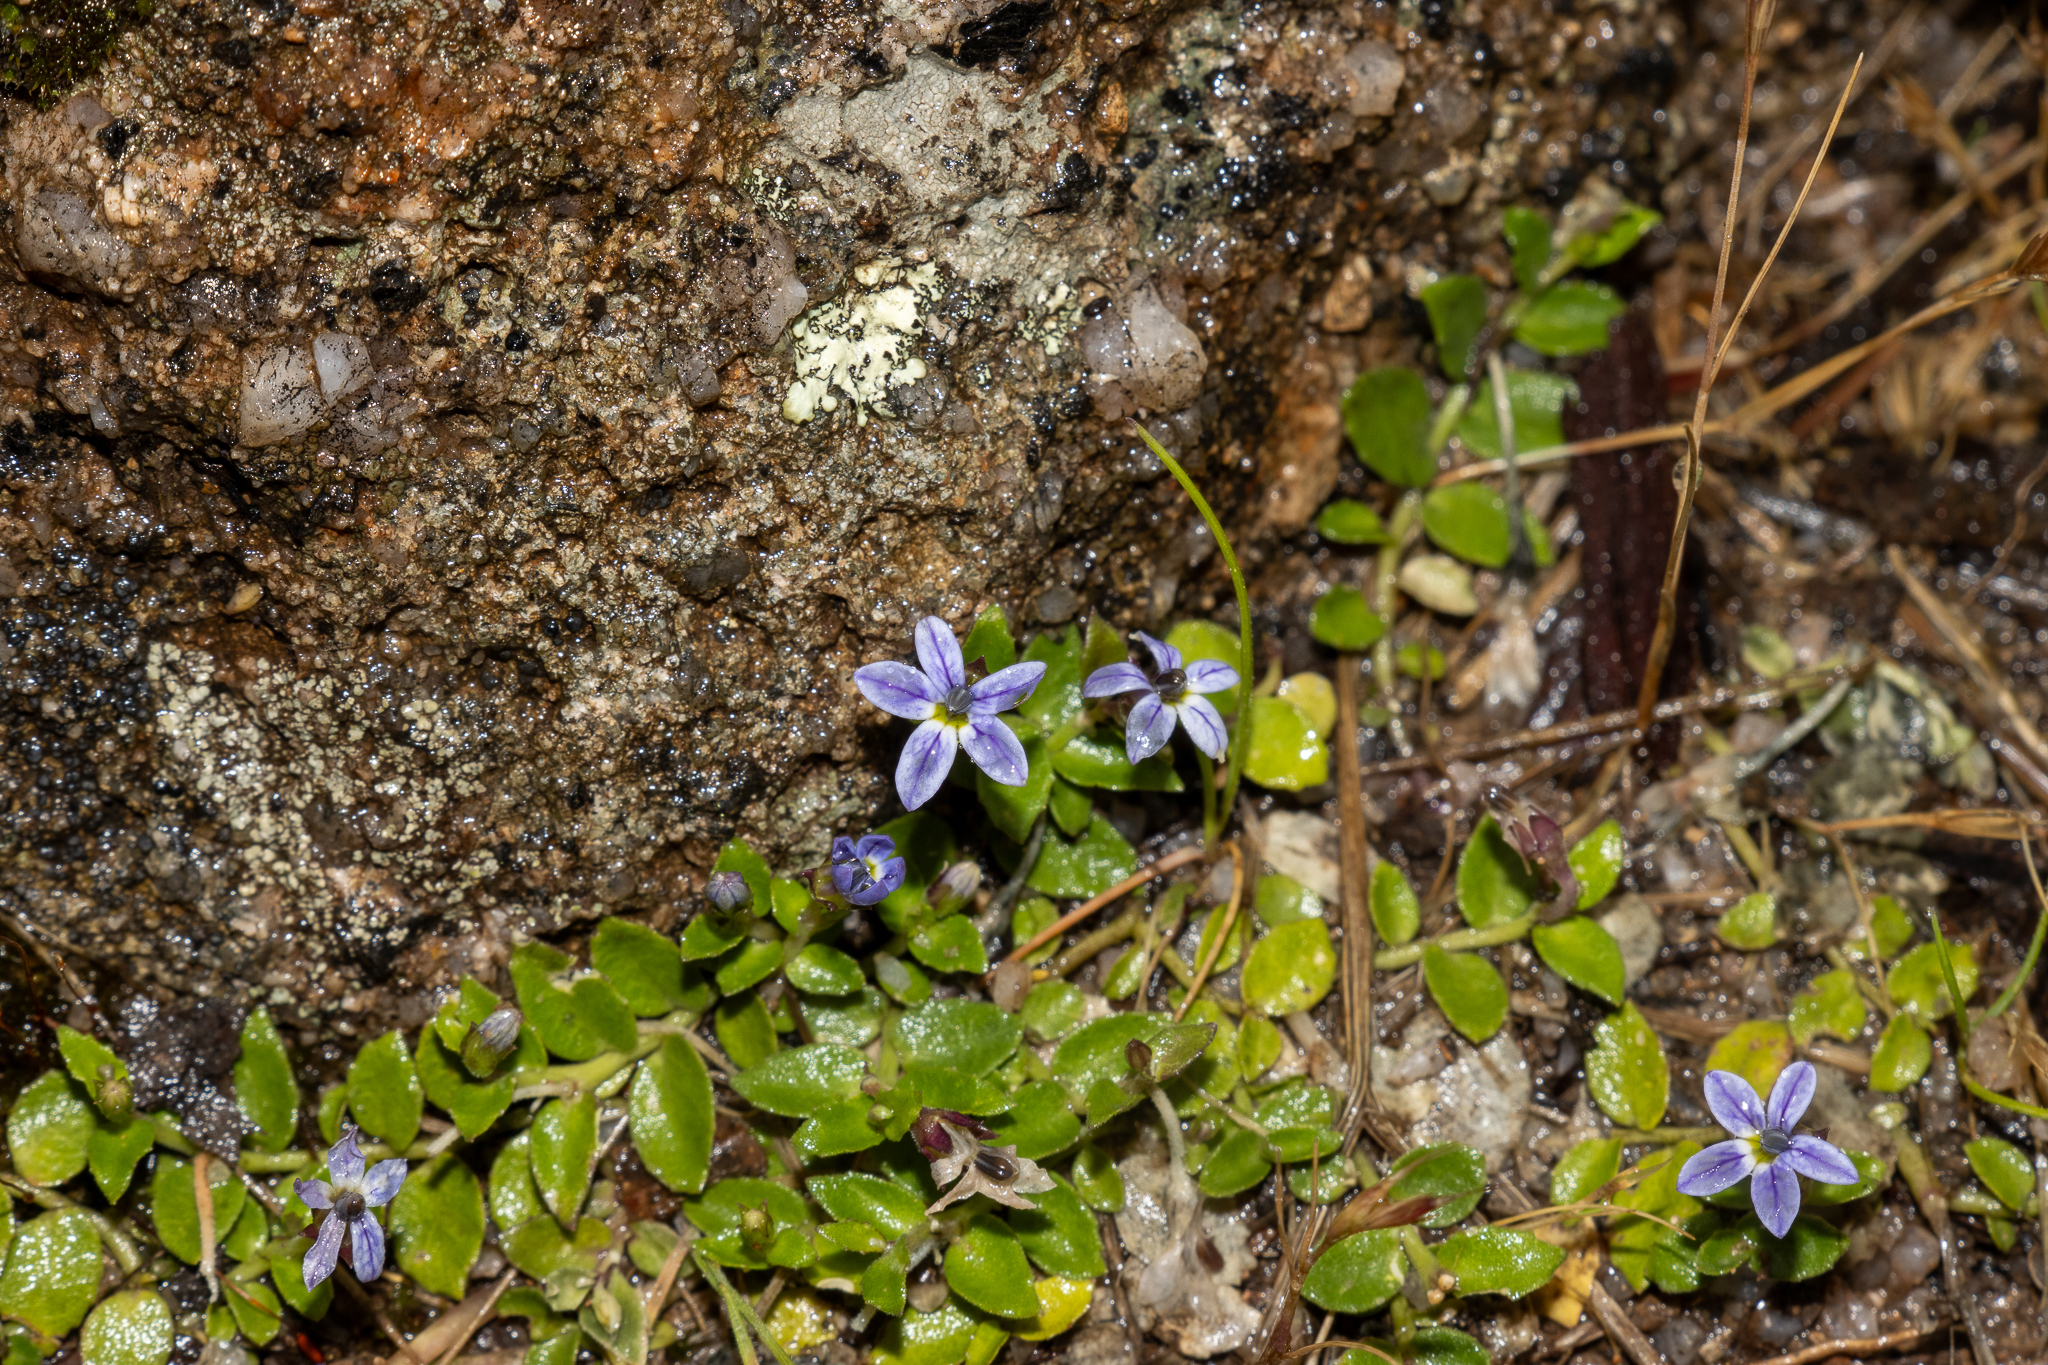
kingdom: Plantae
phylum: Tracheophyta
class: Magnoliopsida
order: Asterales
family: Campanulaceae
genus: Lobelia
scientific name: Lobelia pedunculata
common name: Matted pratia
